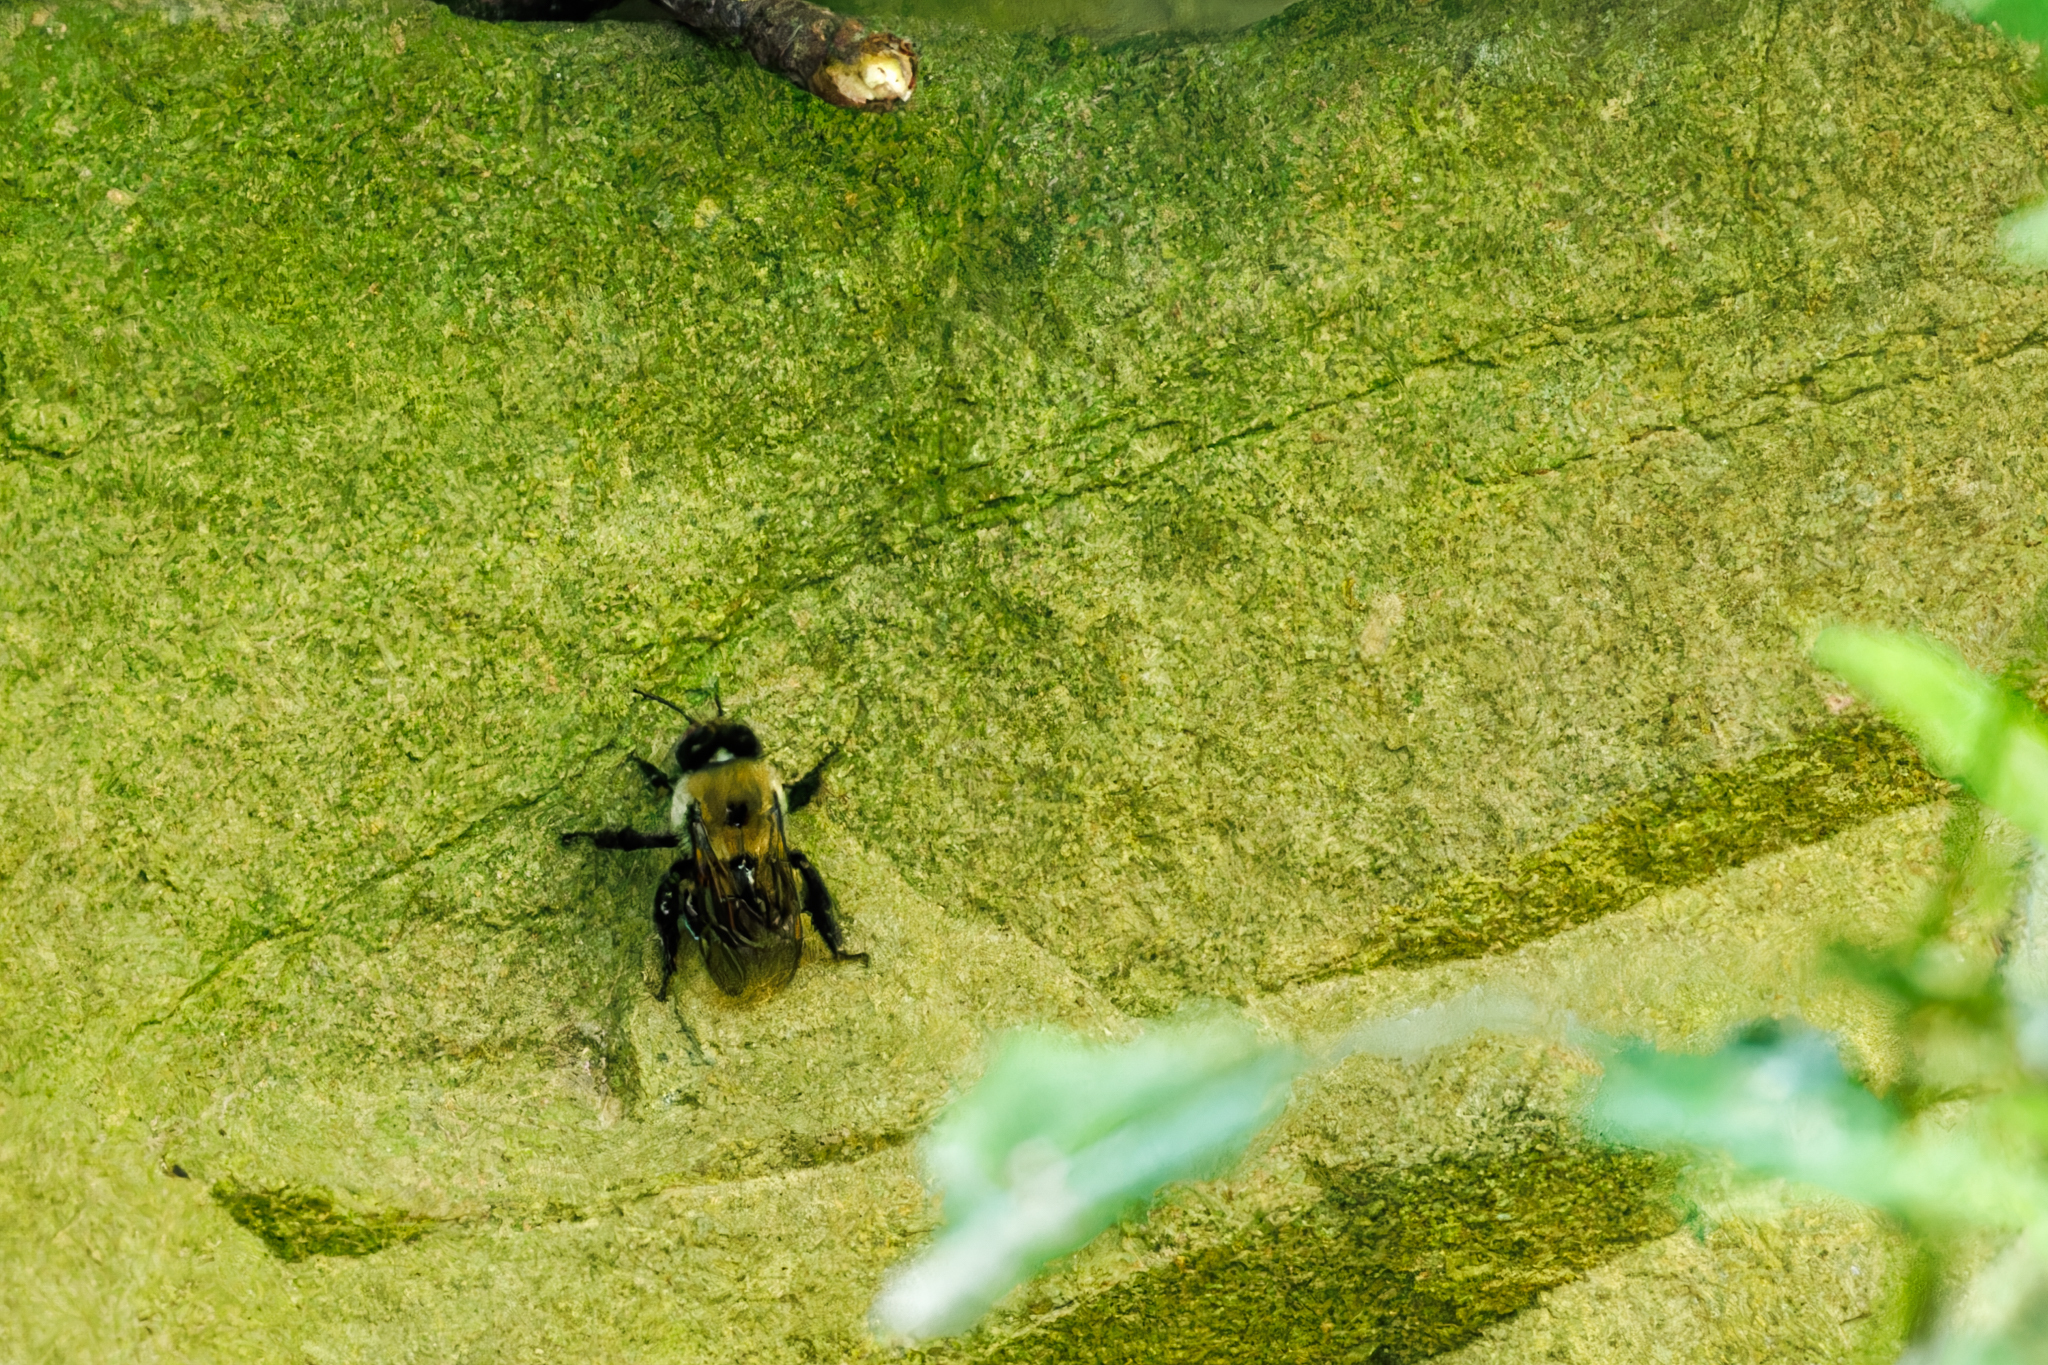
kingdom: Animalia
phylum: Arthropoda
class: Insecta
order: Hymenoptera
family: Apidae
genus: Anthophora
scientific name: Anthophora abrupta
